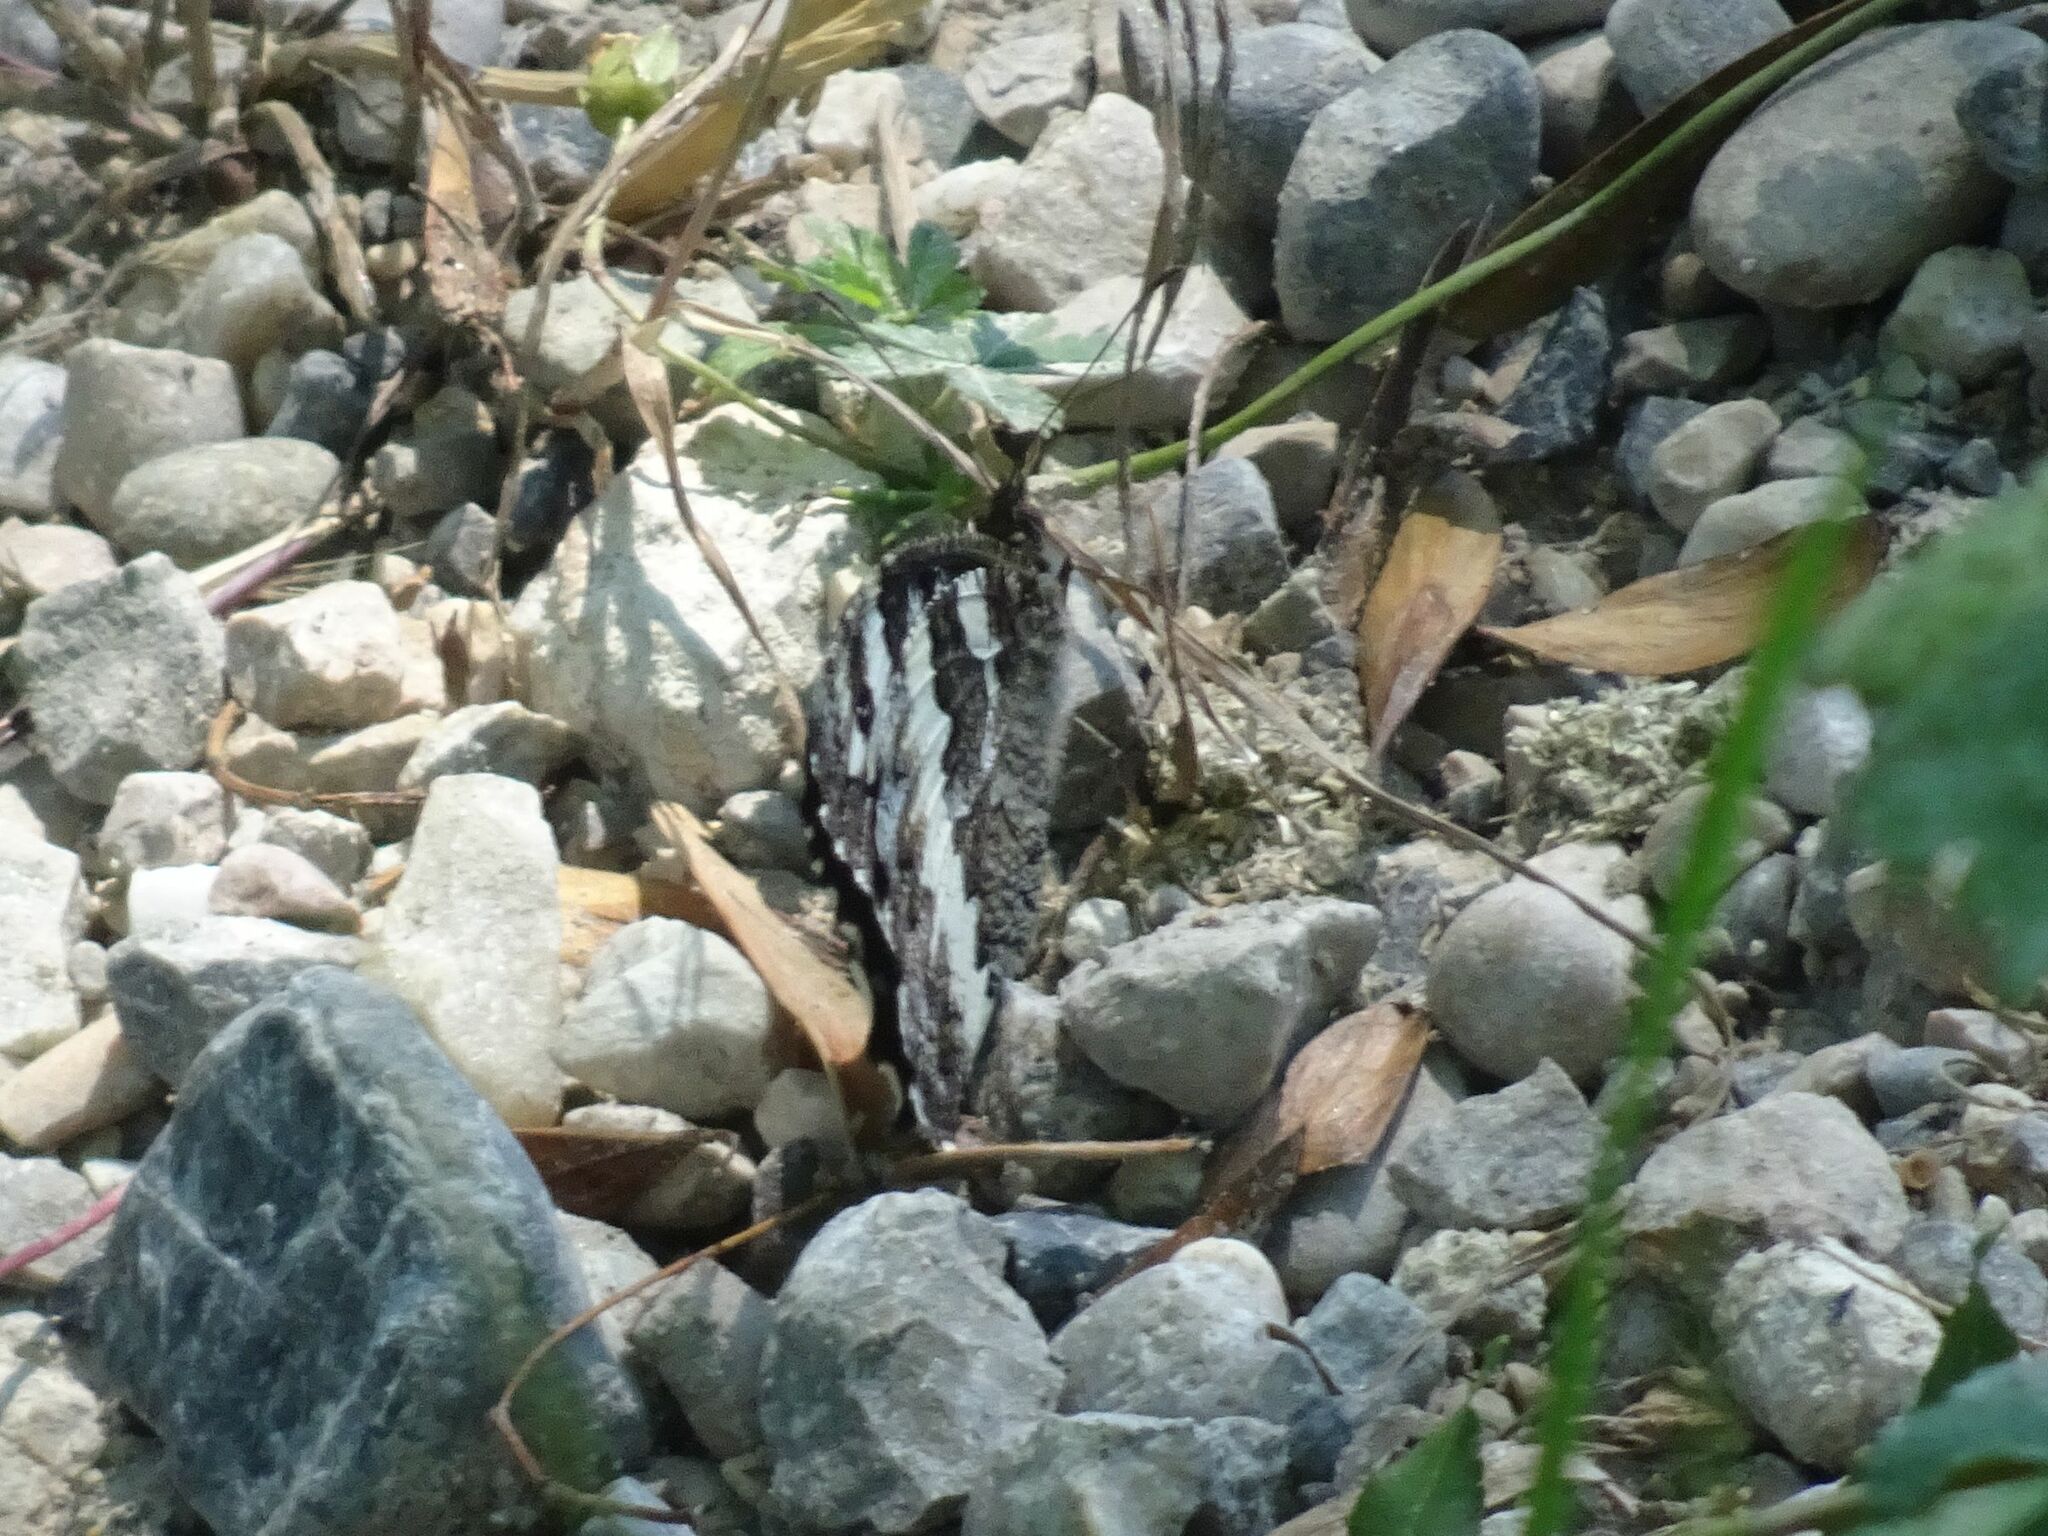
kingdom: Animalia
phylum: Arthropoda
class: Insecta
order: Lepidoptera
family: Lycaenidae
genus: Loweia
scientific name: Loweia tityrus
